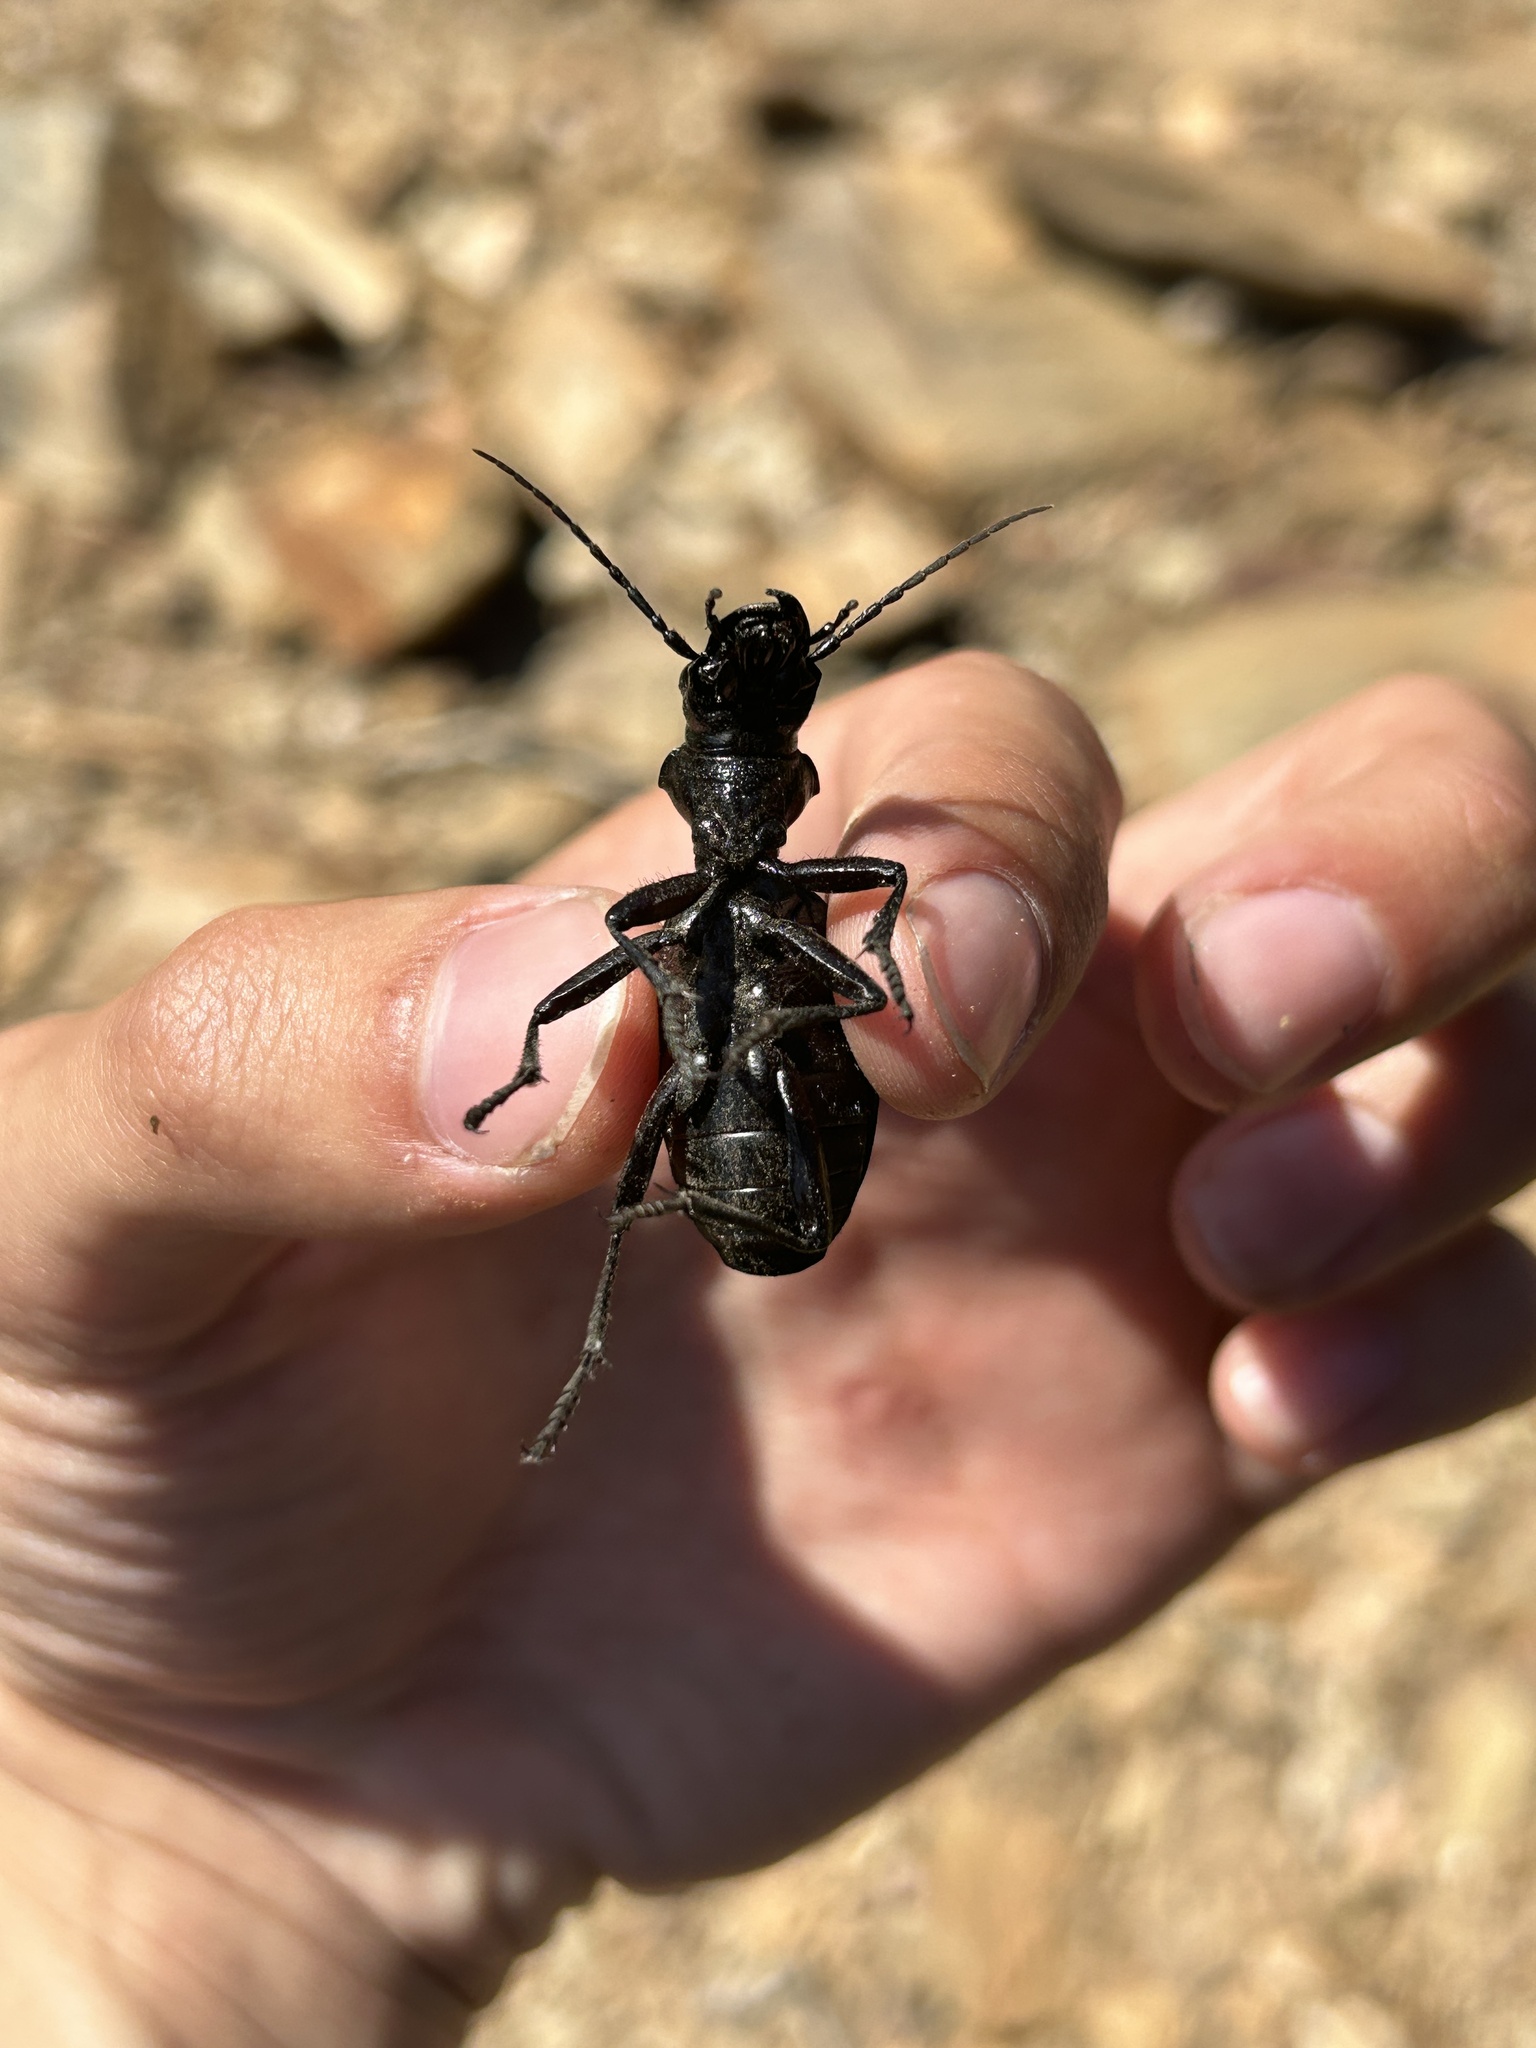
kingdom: Animalia
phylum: Arthropoda
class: Insecta
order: Coleoptera
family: Carabidae
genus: Anthia
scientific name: Anthia decemguttata
